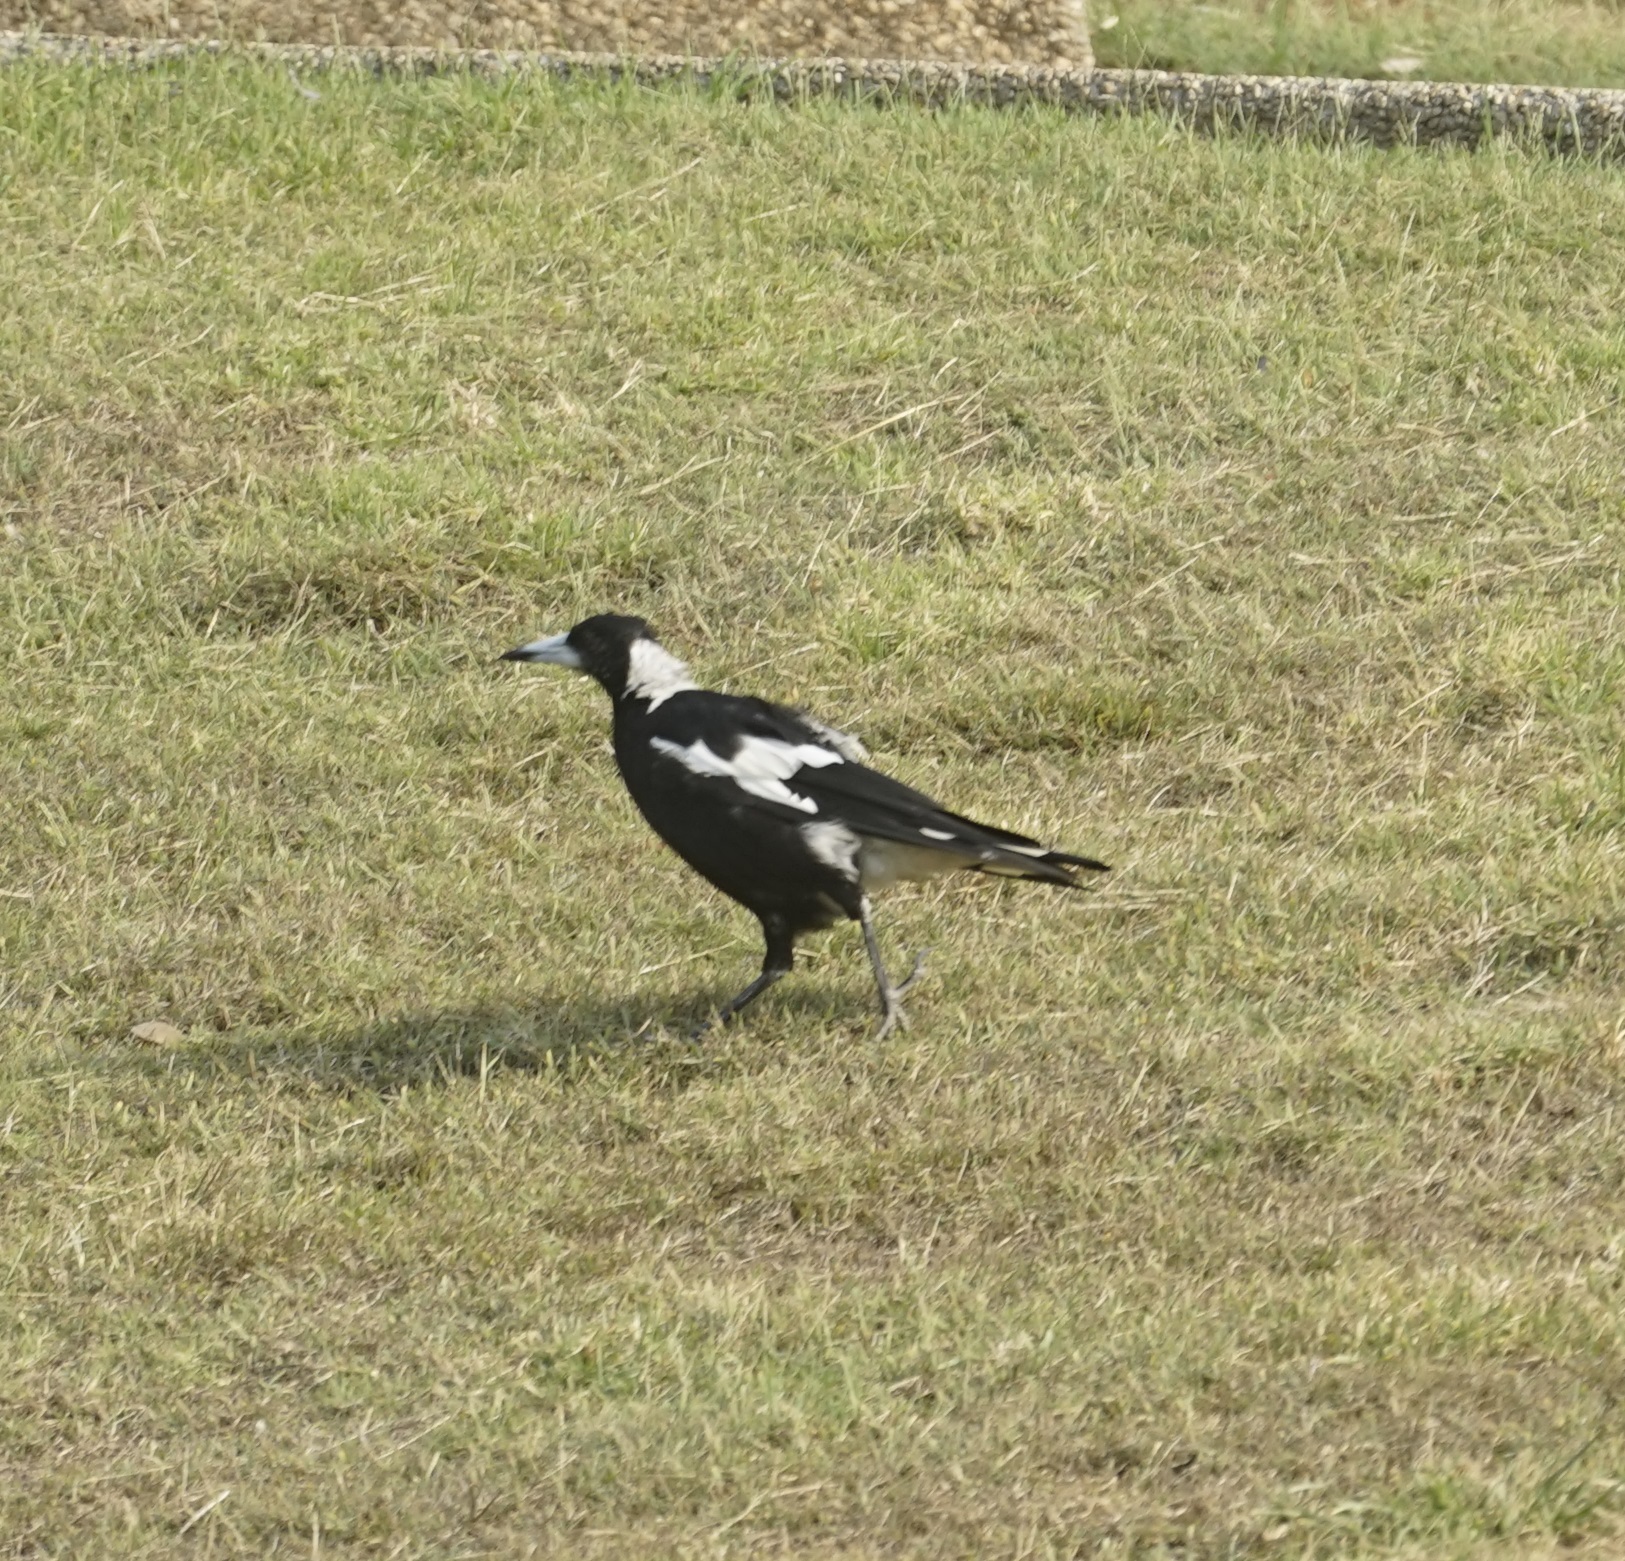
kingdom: Animalia
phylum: Chordata
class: Aves
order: Passeriformes
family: Cracticidae
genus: Gymnorhina
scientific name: Gymnorhina tibicen
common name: Australian magpie
